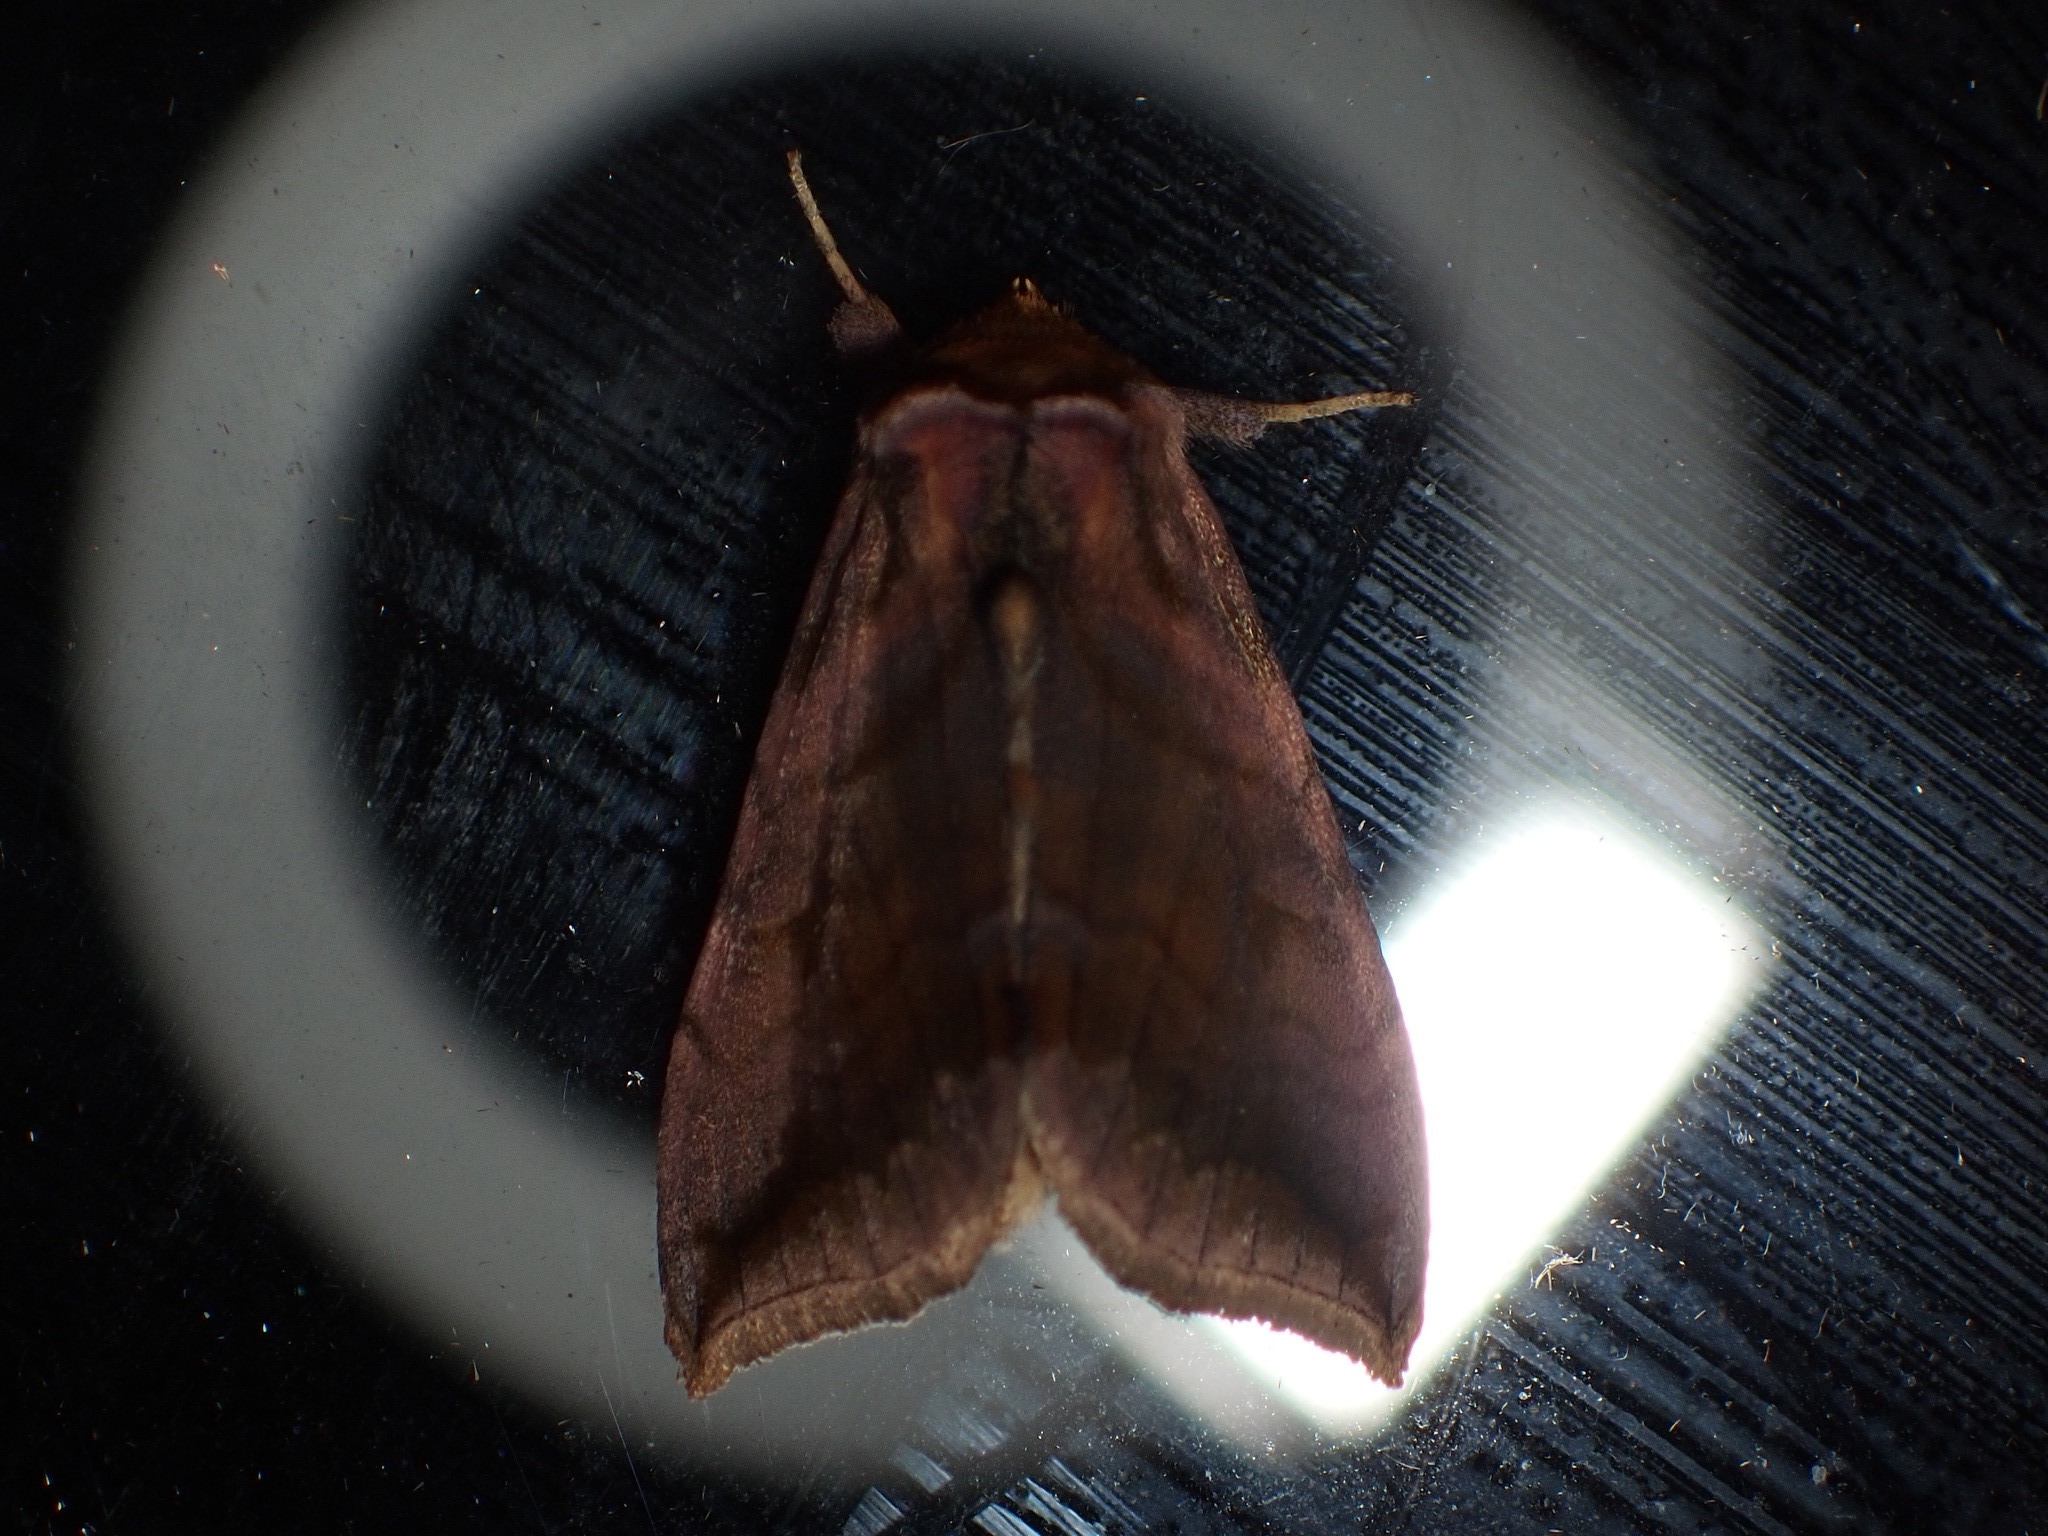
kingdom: Animalia
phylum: Arthropoda
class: Insecta
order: Lepidoptera
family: Noctuidae
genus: Allagrapha
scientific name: Allagrapha aerea
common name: Unspotted looper moth
